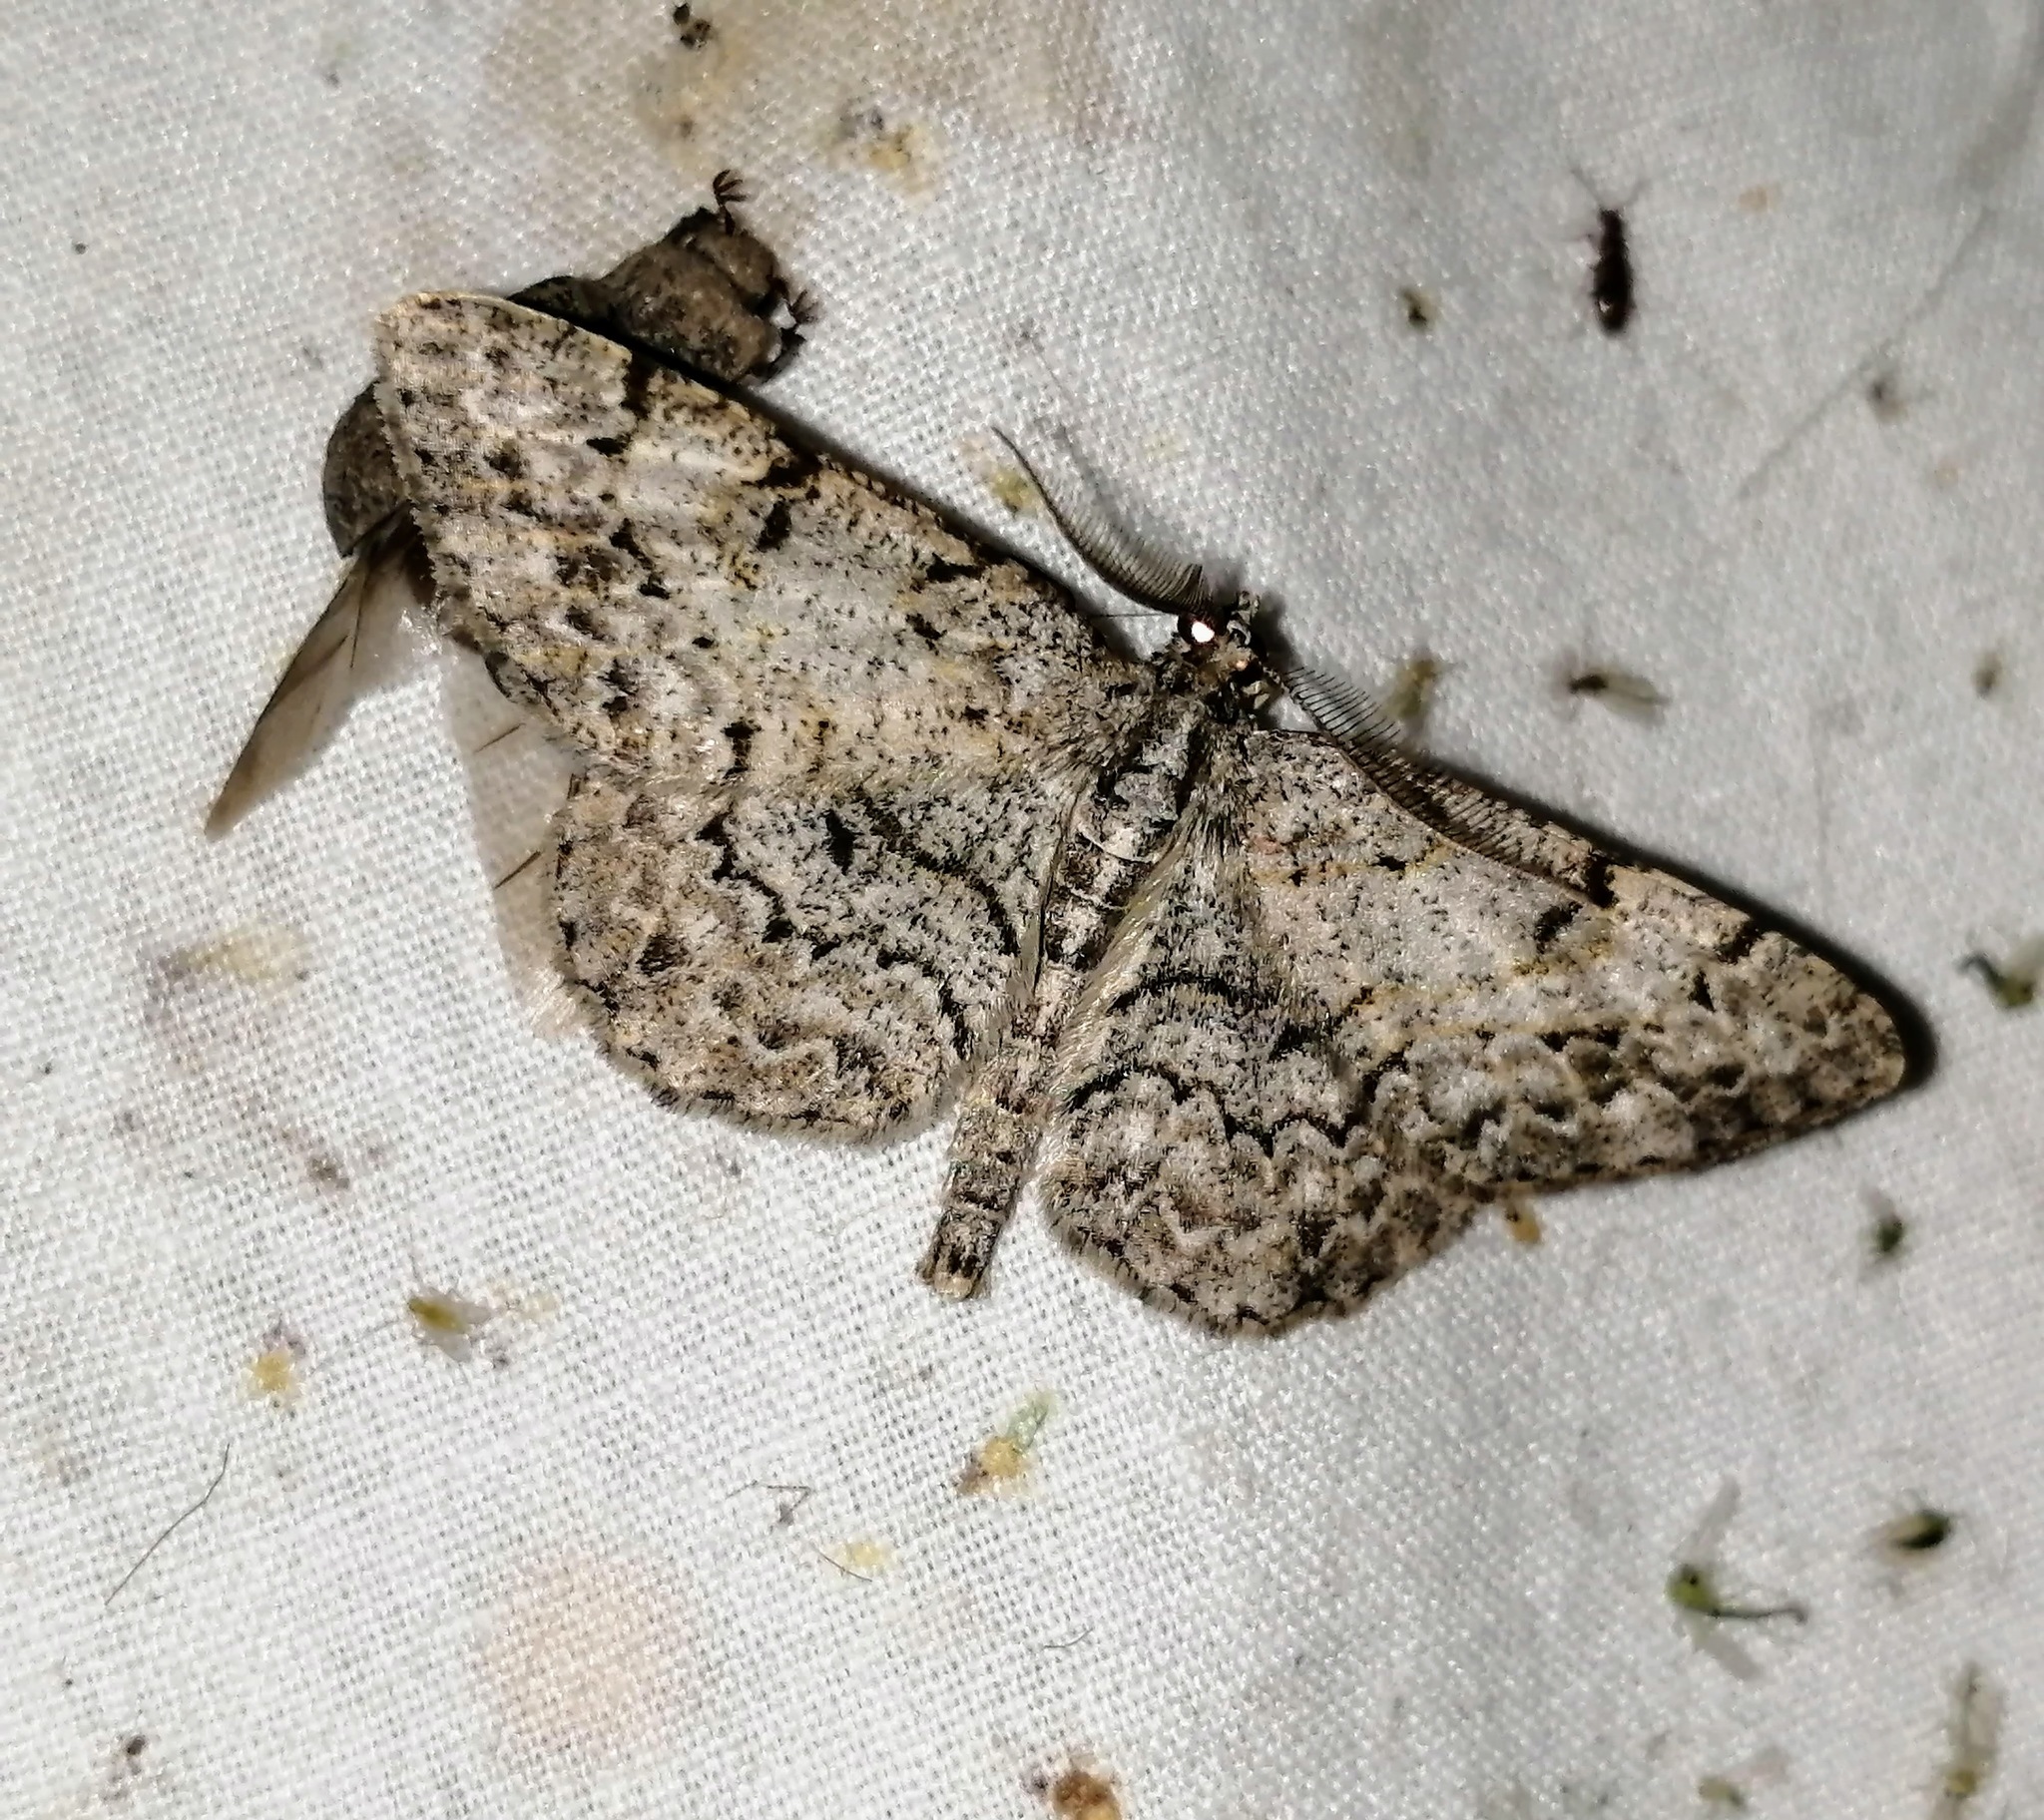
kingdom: Animalia
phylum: Arthropoda
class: Insecta
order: Lepidoptera
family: Geometridae
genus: Protoboarmia
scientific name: Protoboarmia porcelaria
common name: Porcelain gray
